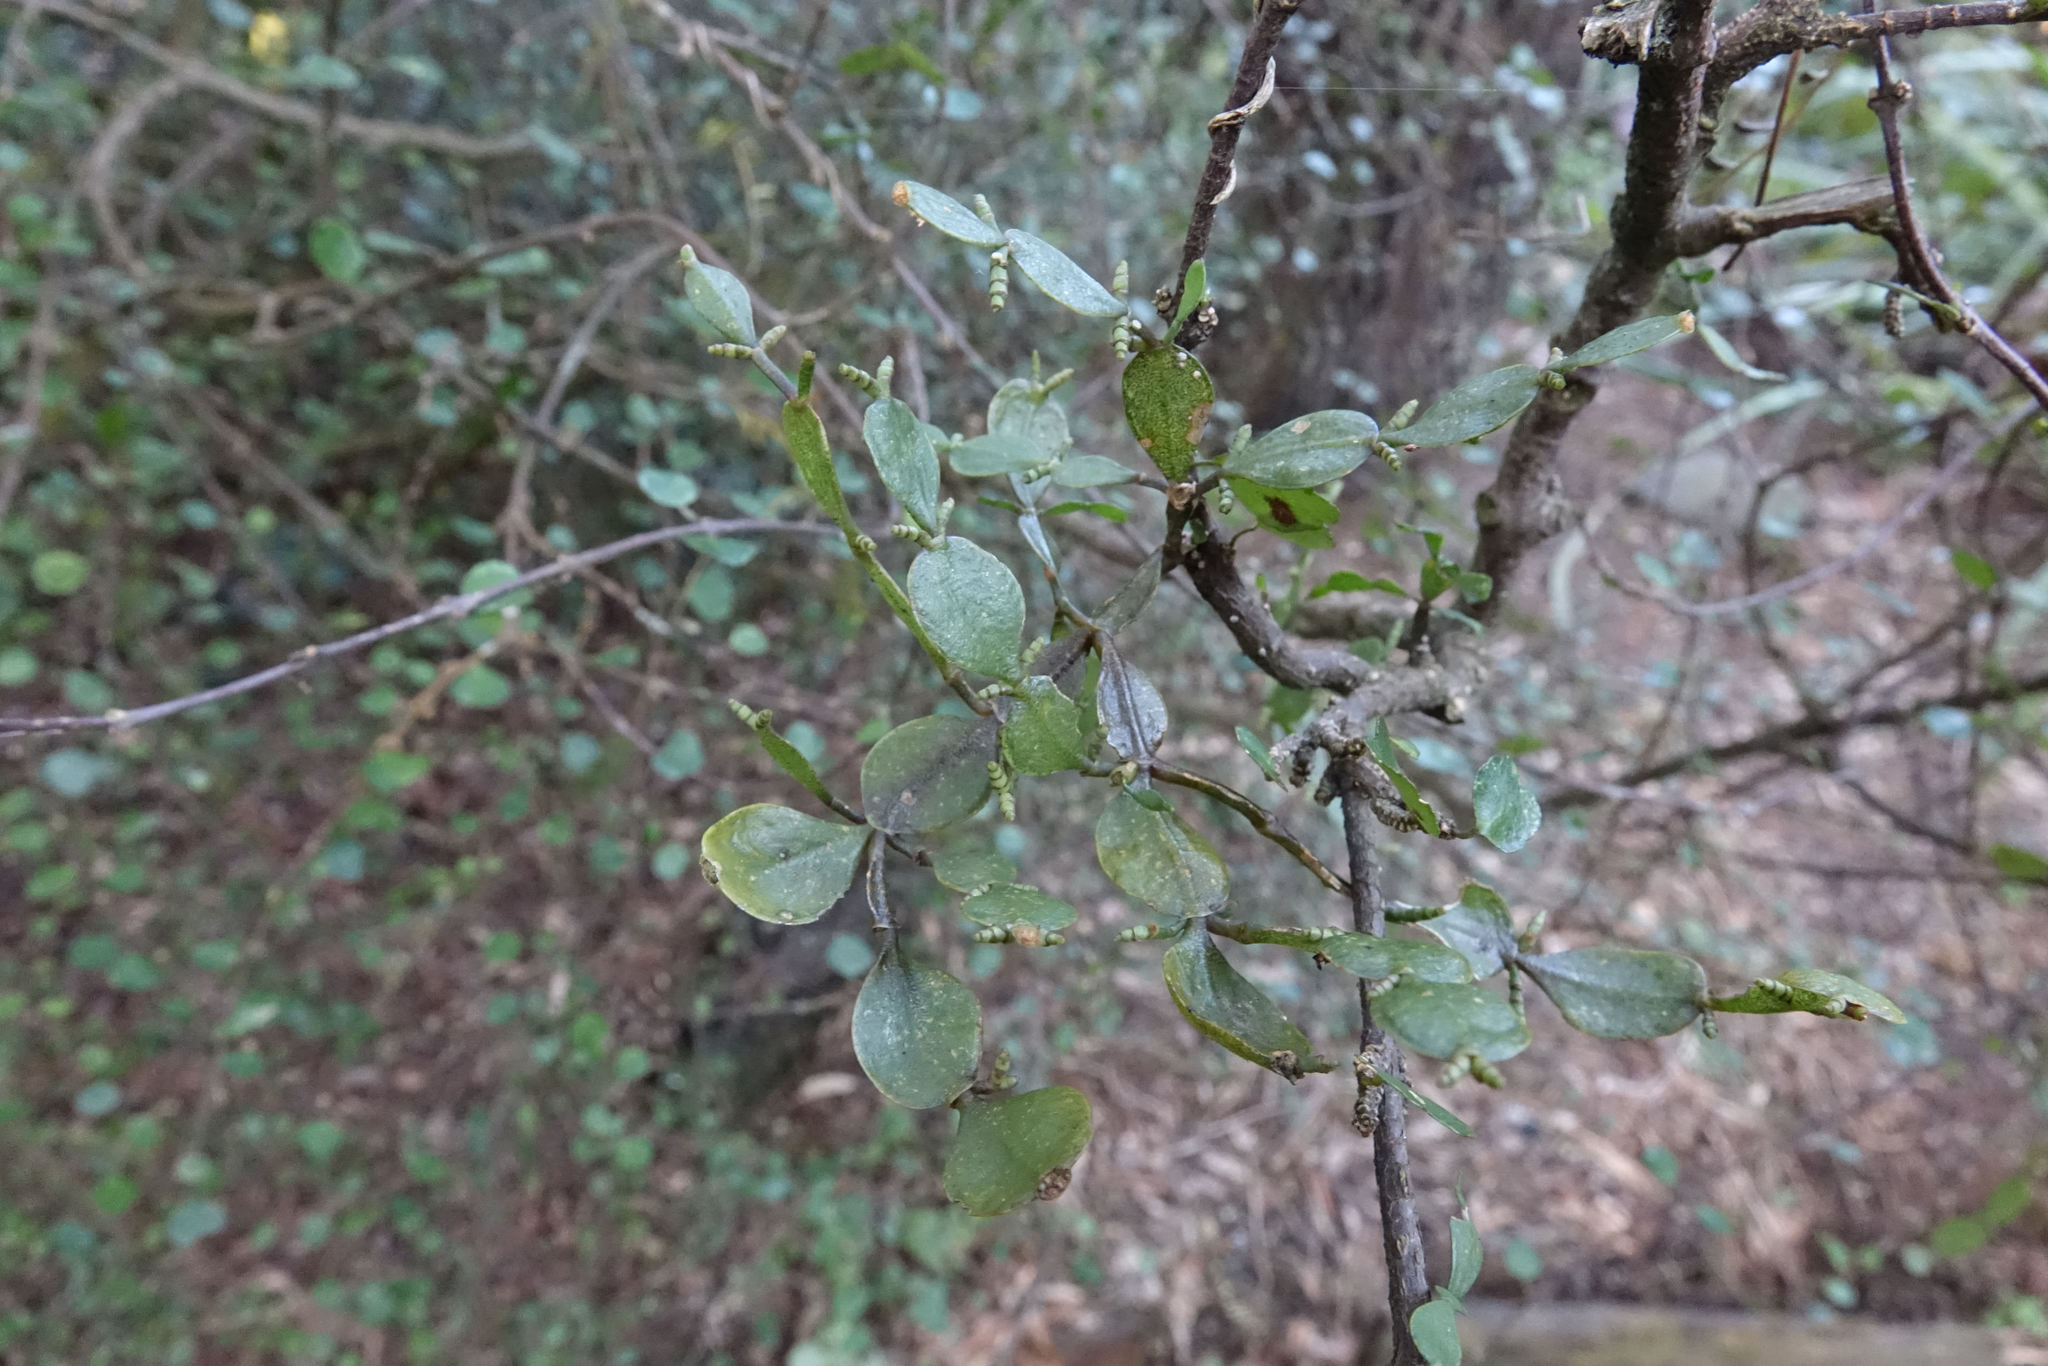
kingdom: Plantae
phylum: Tracheophyta
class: Magnoliopsida
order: Santalales
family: Viscaceae
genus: Korthalsella
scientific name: Korthalsella lindsayi
